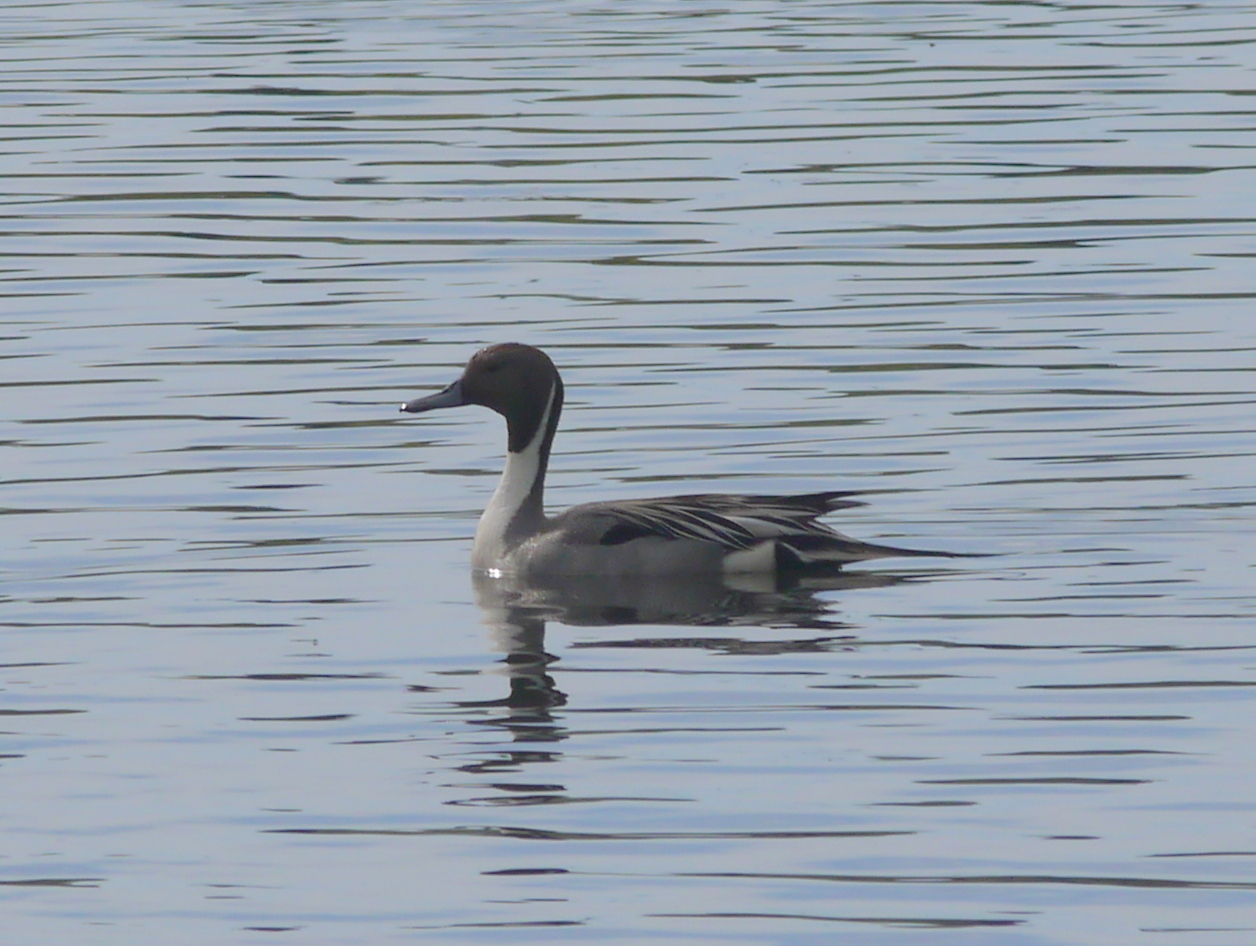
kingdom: Animalia
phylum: Chordata
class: Aves
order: Anseriformes
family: Anatidae
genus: Anas
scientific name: Anas acuta
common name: Northern pintail
